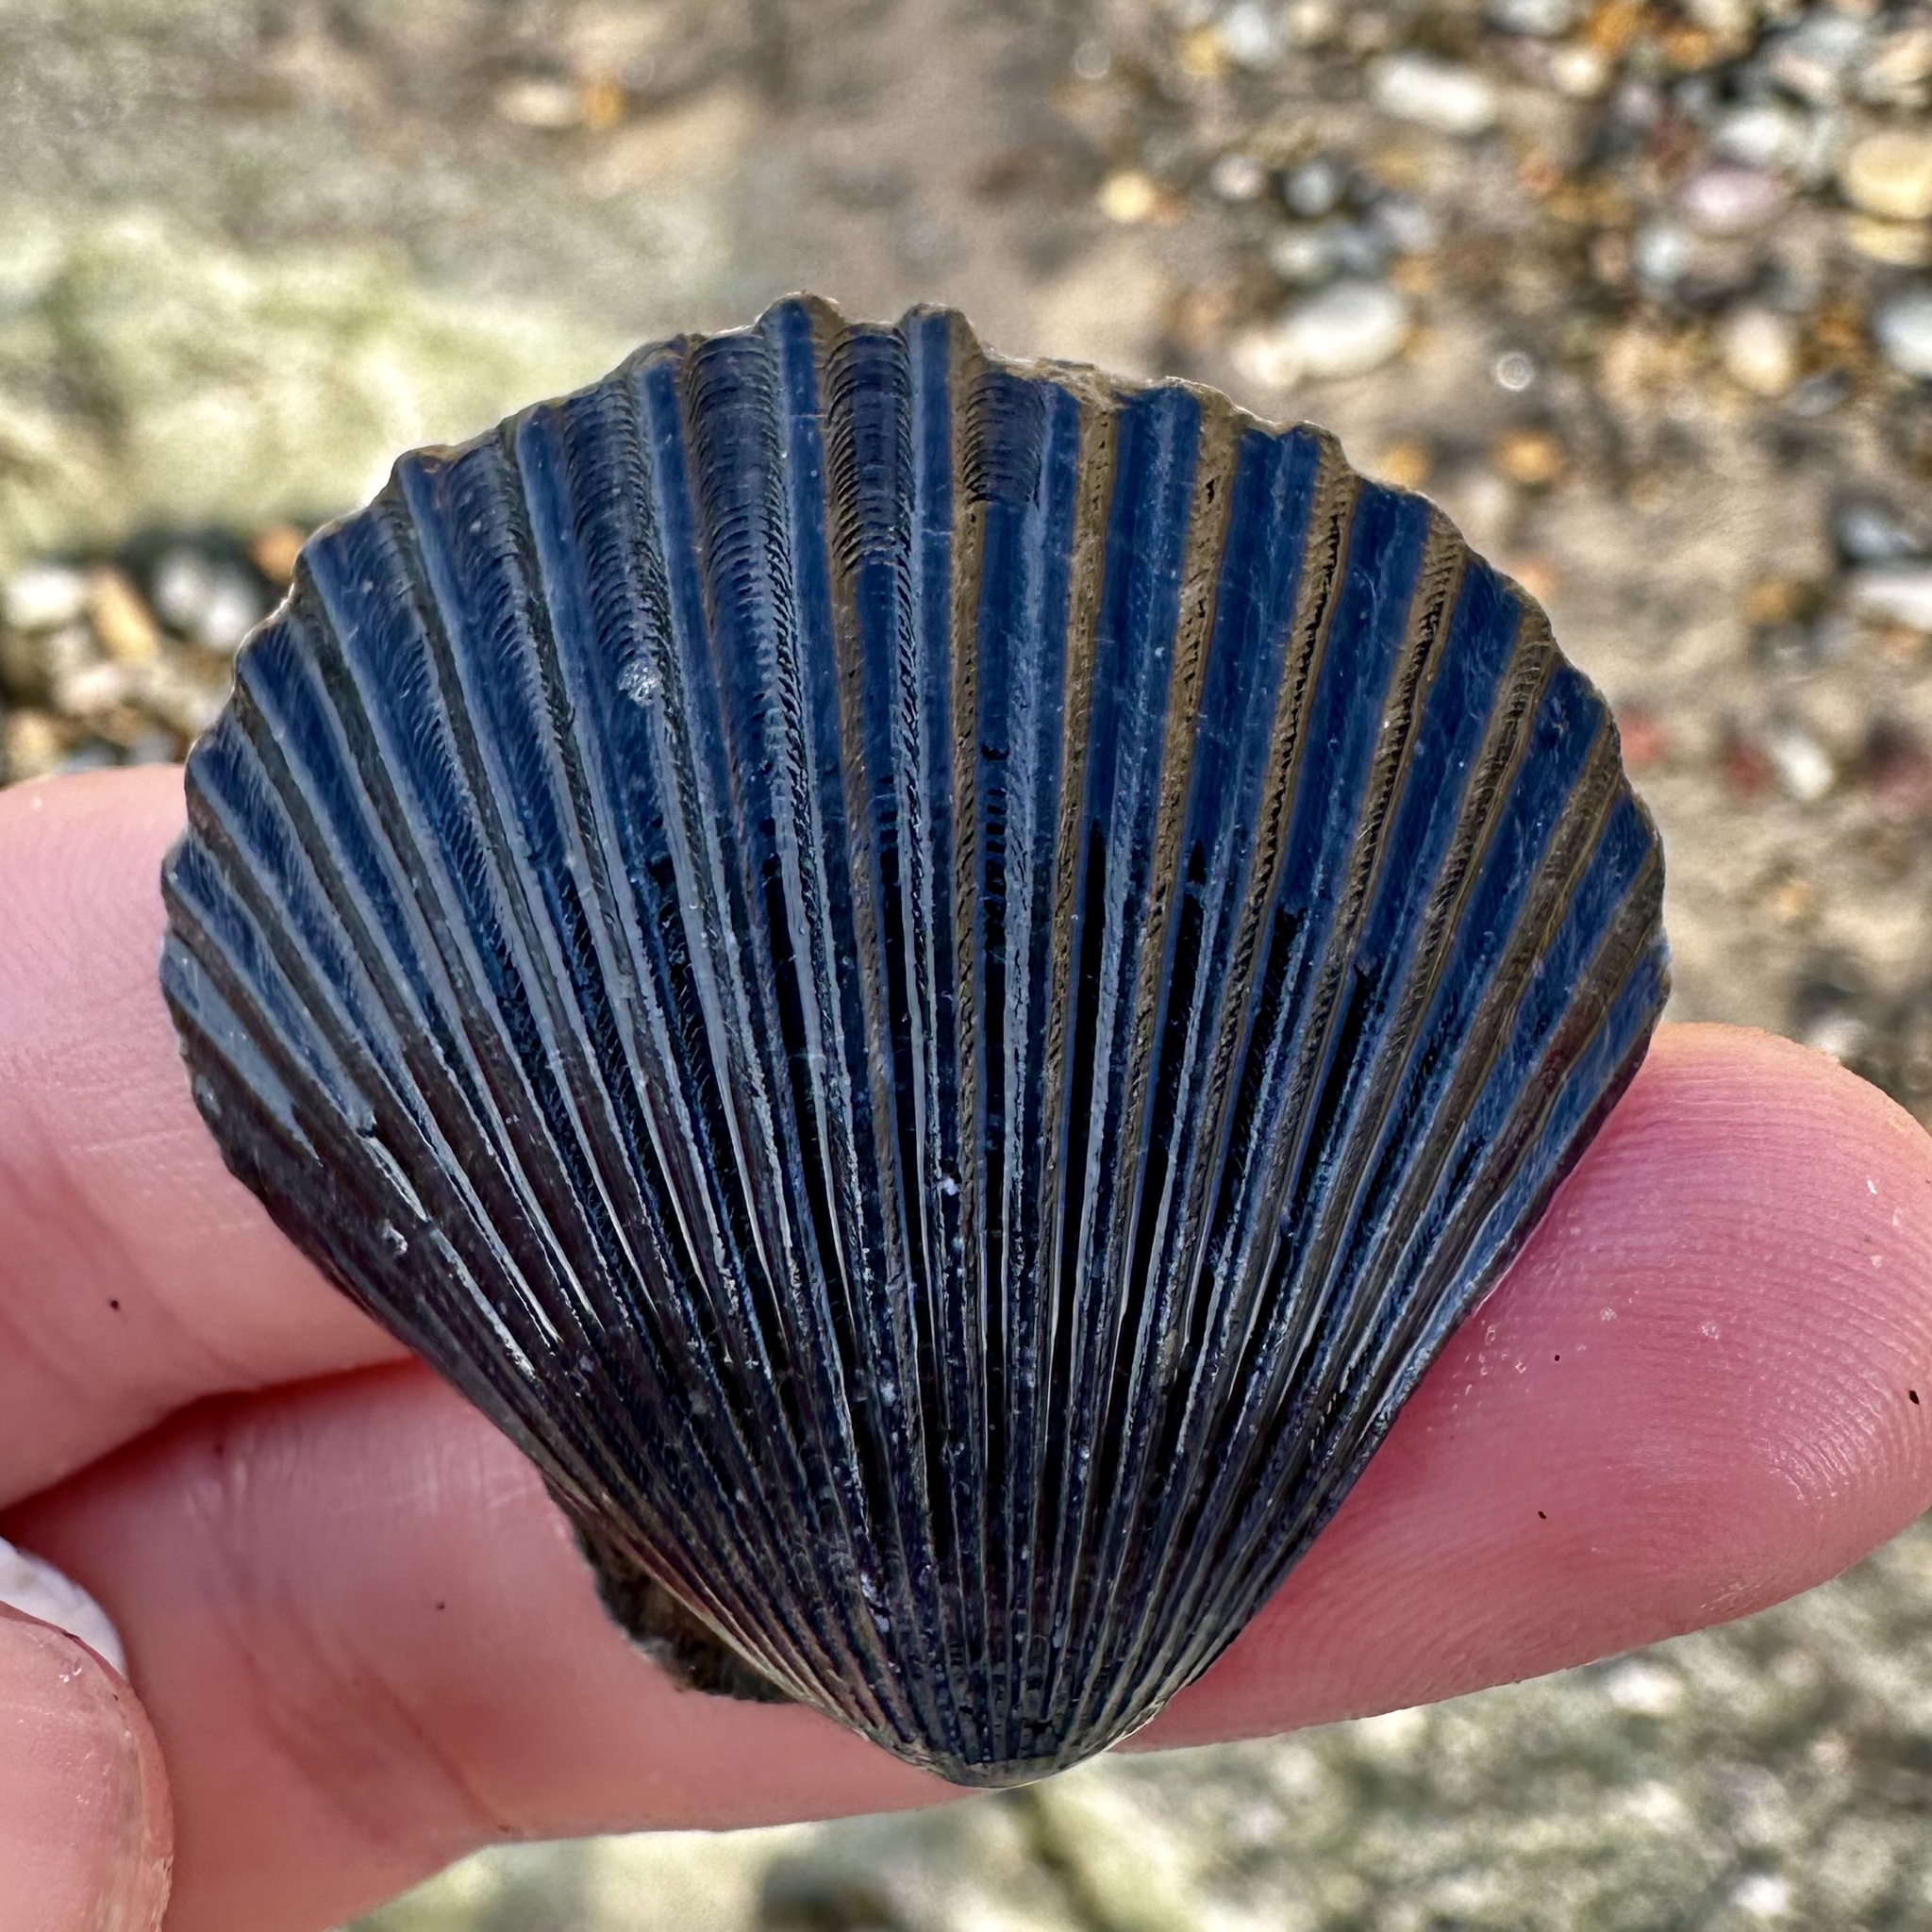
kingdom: Animalia
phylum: Mollusca
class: Bivalvia
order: Pectinida
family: Pectinidae
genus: Argopecten
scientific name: Argopecten ventricosus
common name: Catarina scallop
